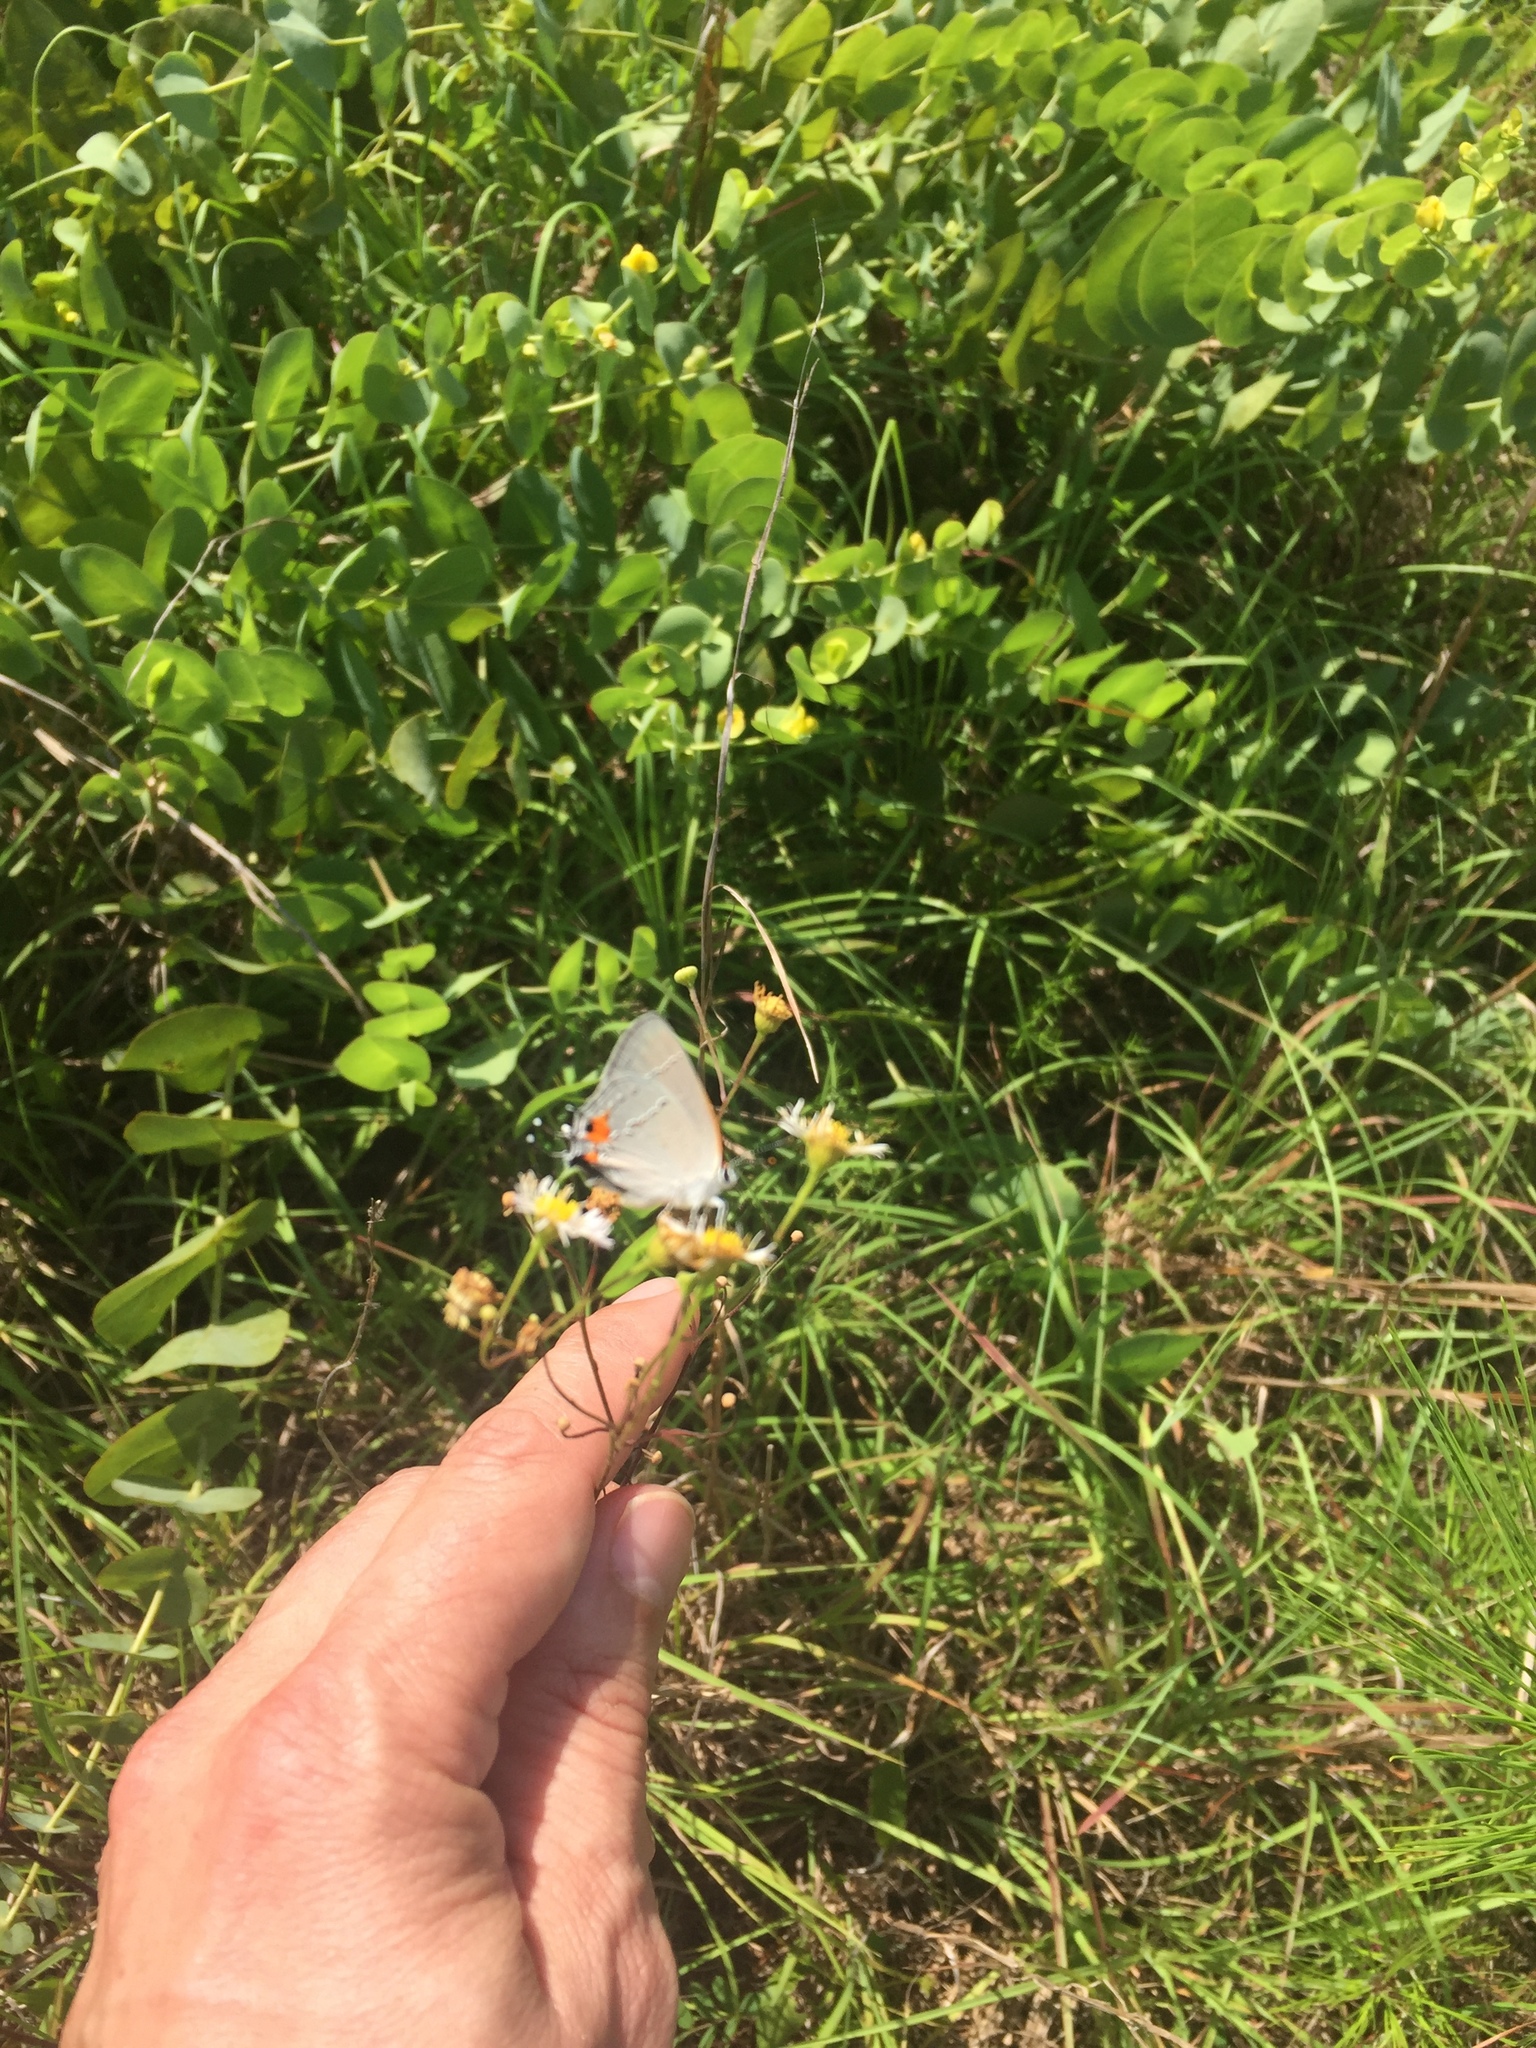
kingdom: Animalia
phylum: Arthropoda
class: Insecta
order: Lepidoptera
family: Lycaenidae
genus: Strymon
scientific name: Strymon melinus
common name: Gray hairstreak
